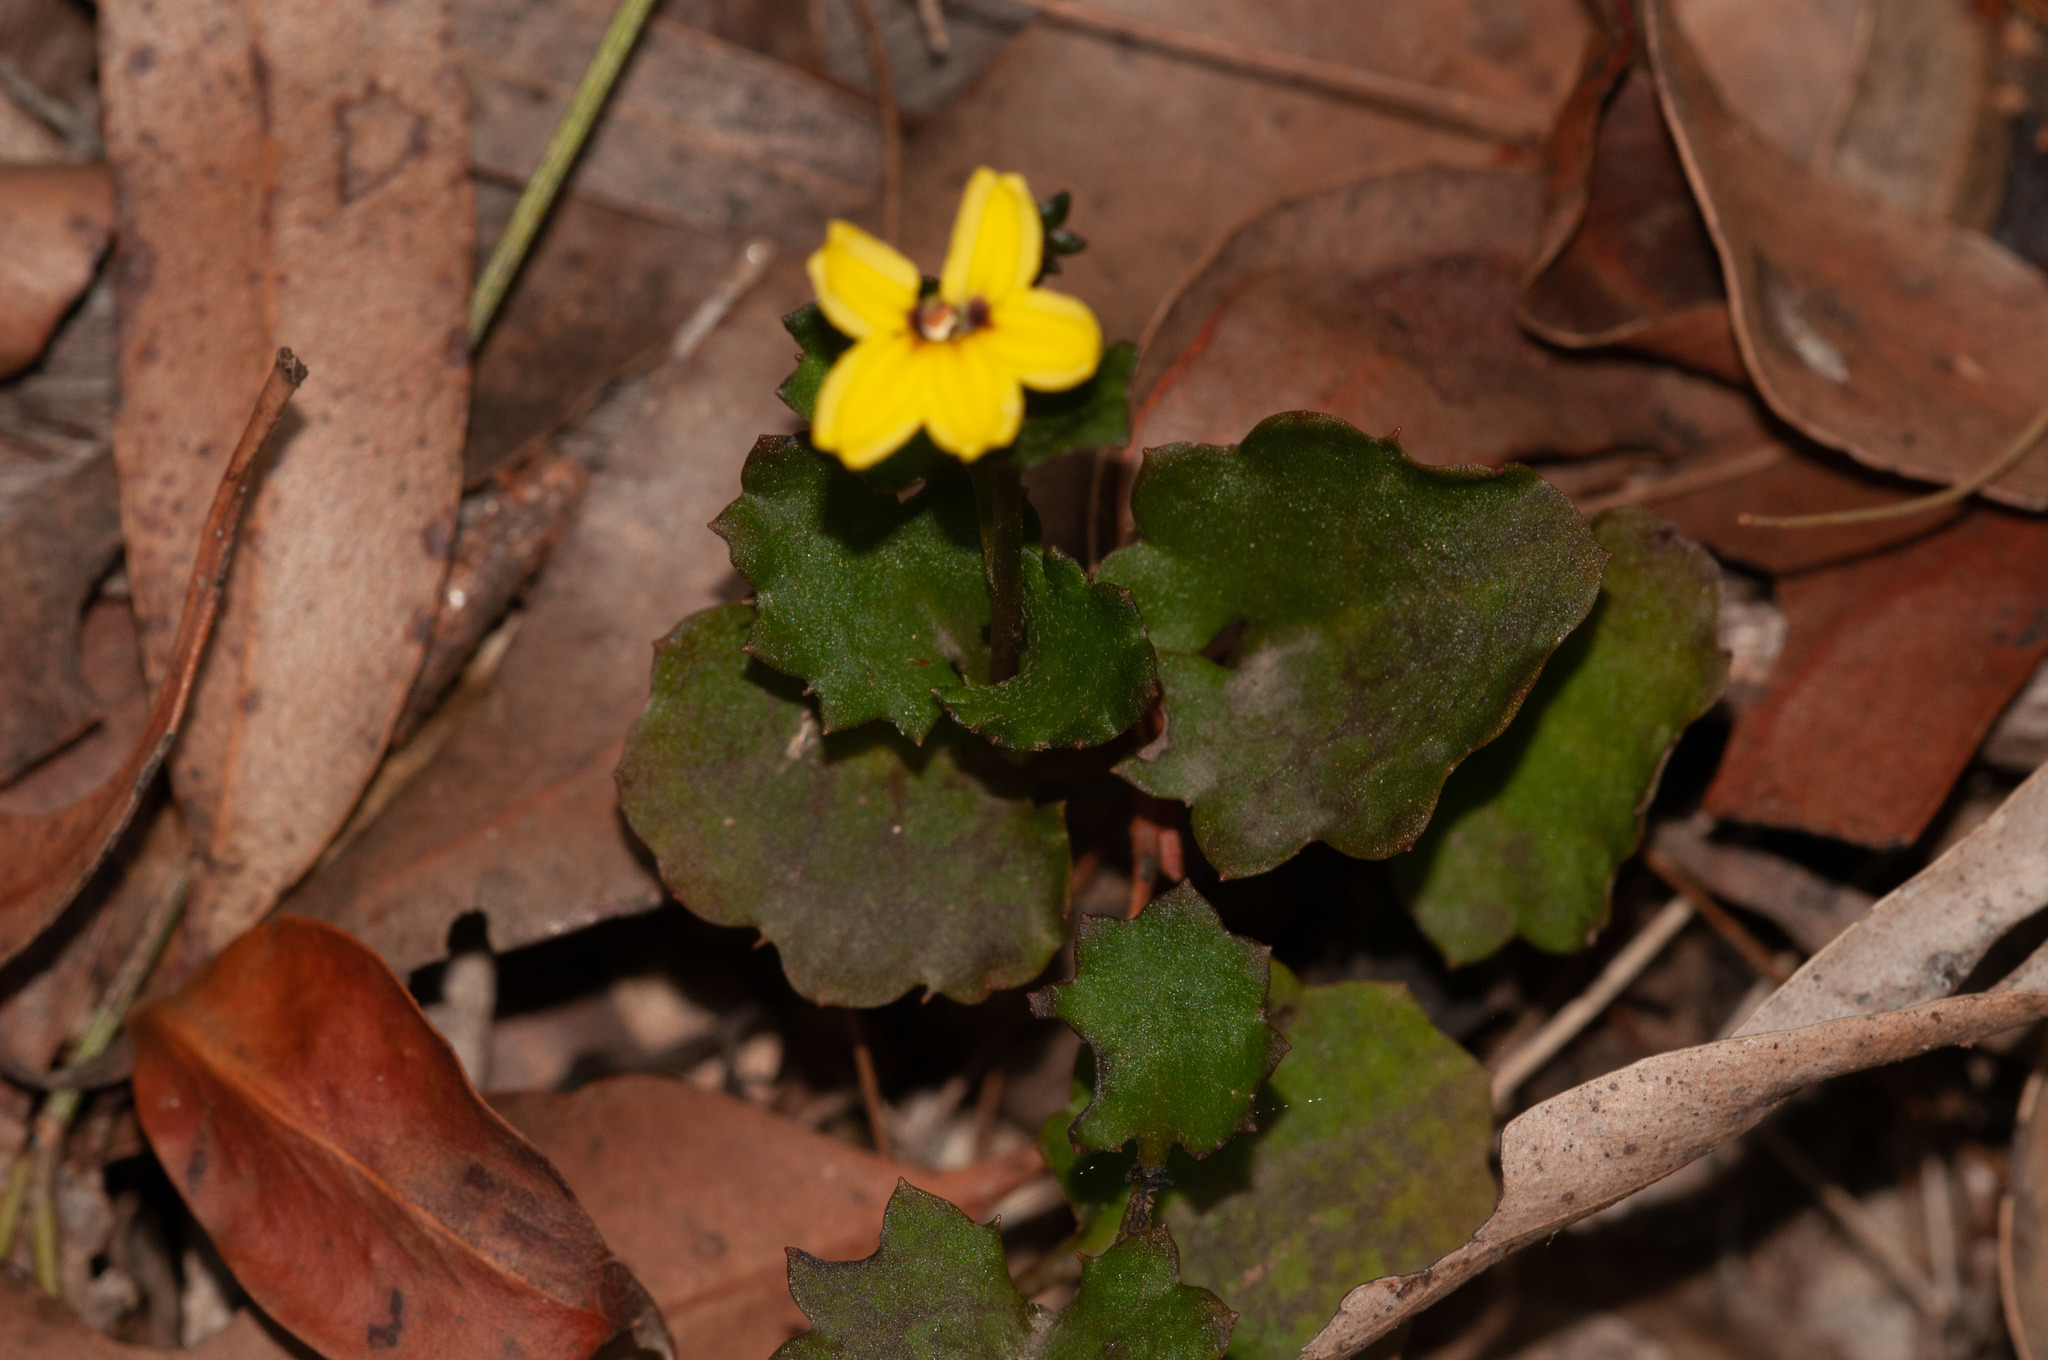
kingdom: Plantae
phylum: Tracheophyta
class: Magnoliopsida
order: Asterales
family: Goodeniaceae
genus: Goodenia
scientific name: Goodenia rotundifolia
